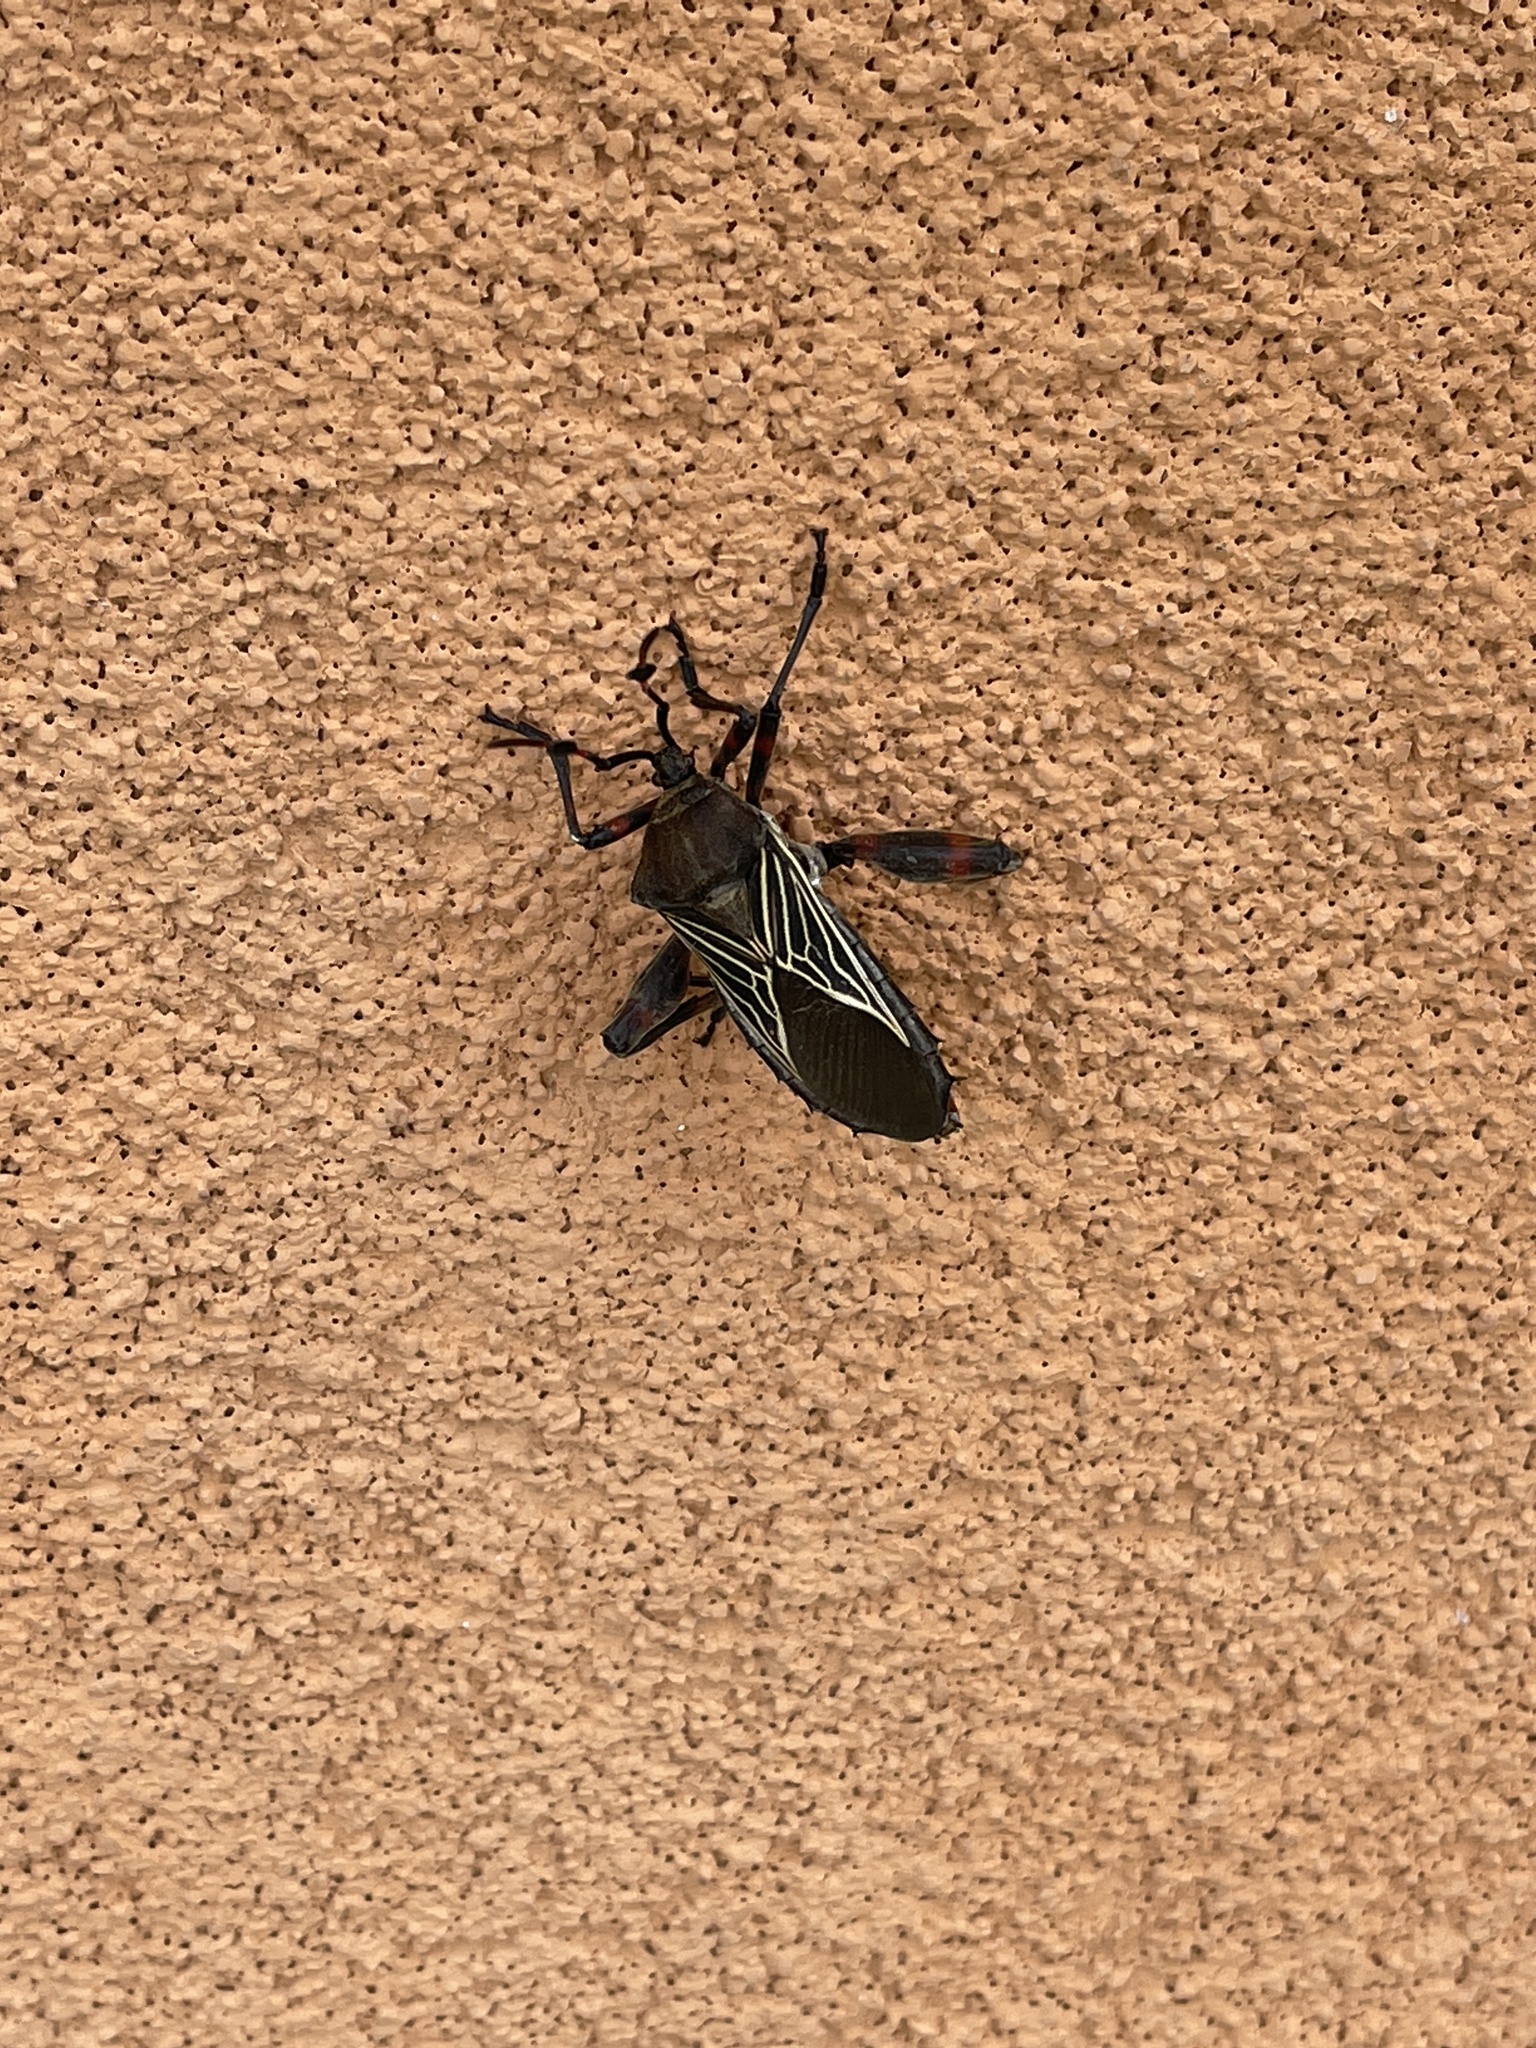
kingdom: Animalia
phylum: Arthropoda
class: Insecta
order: Hemiptera
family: Coreidae
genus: Thasus
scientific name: Thasus neocalifornicus
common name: Giant mesquite bug
